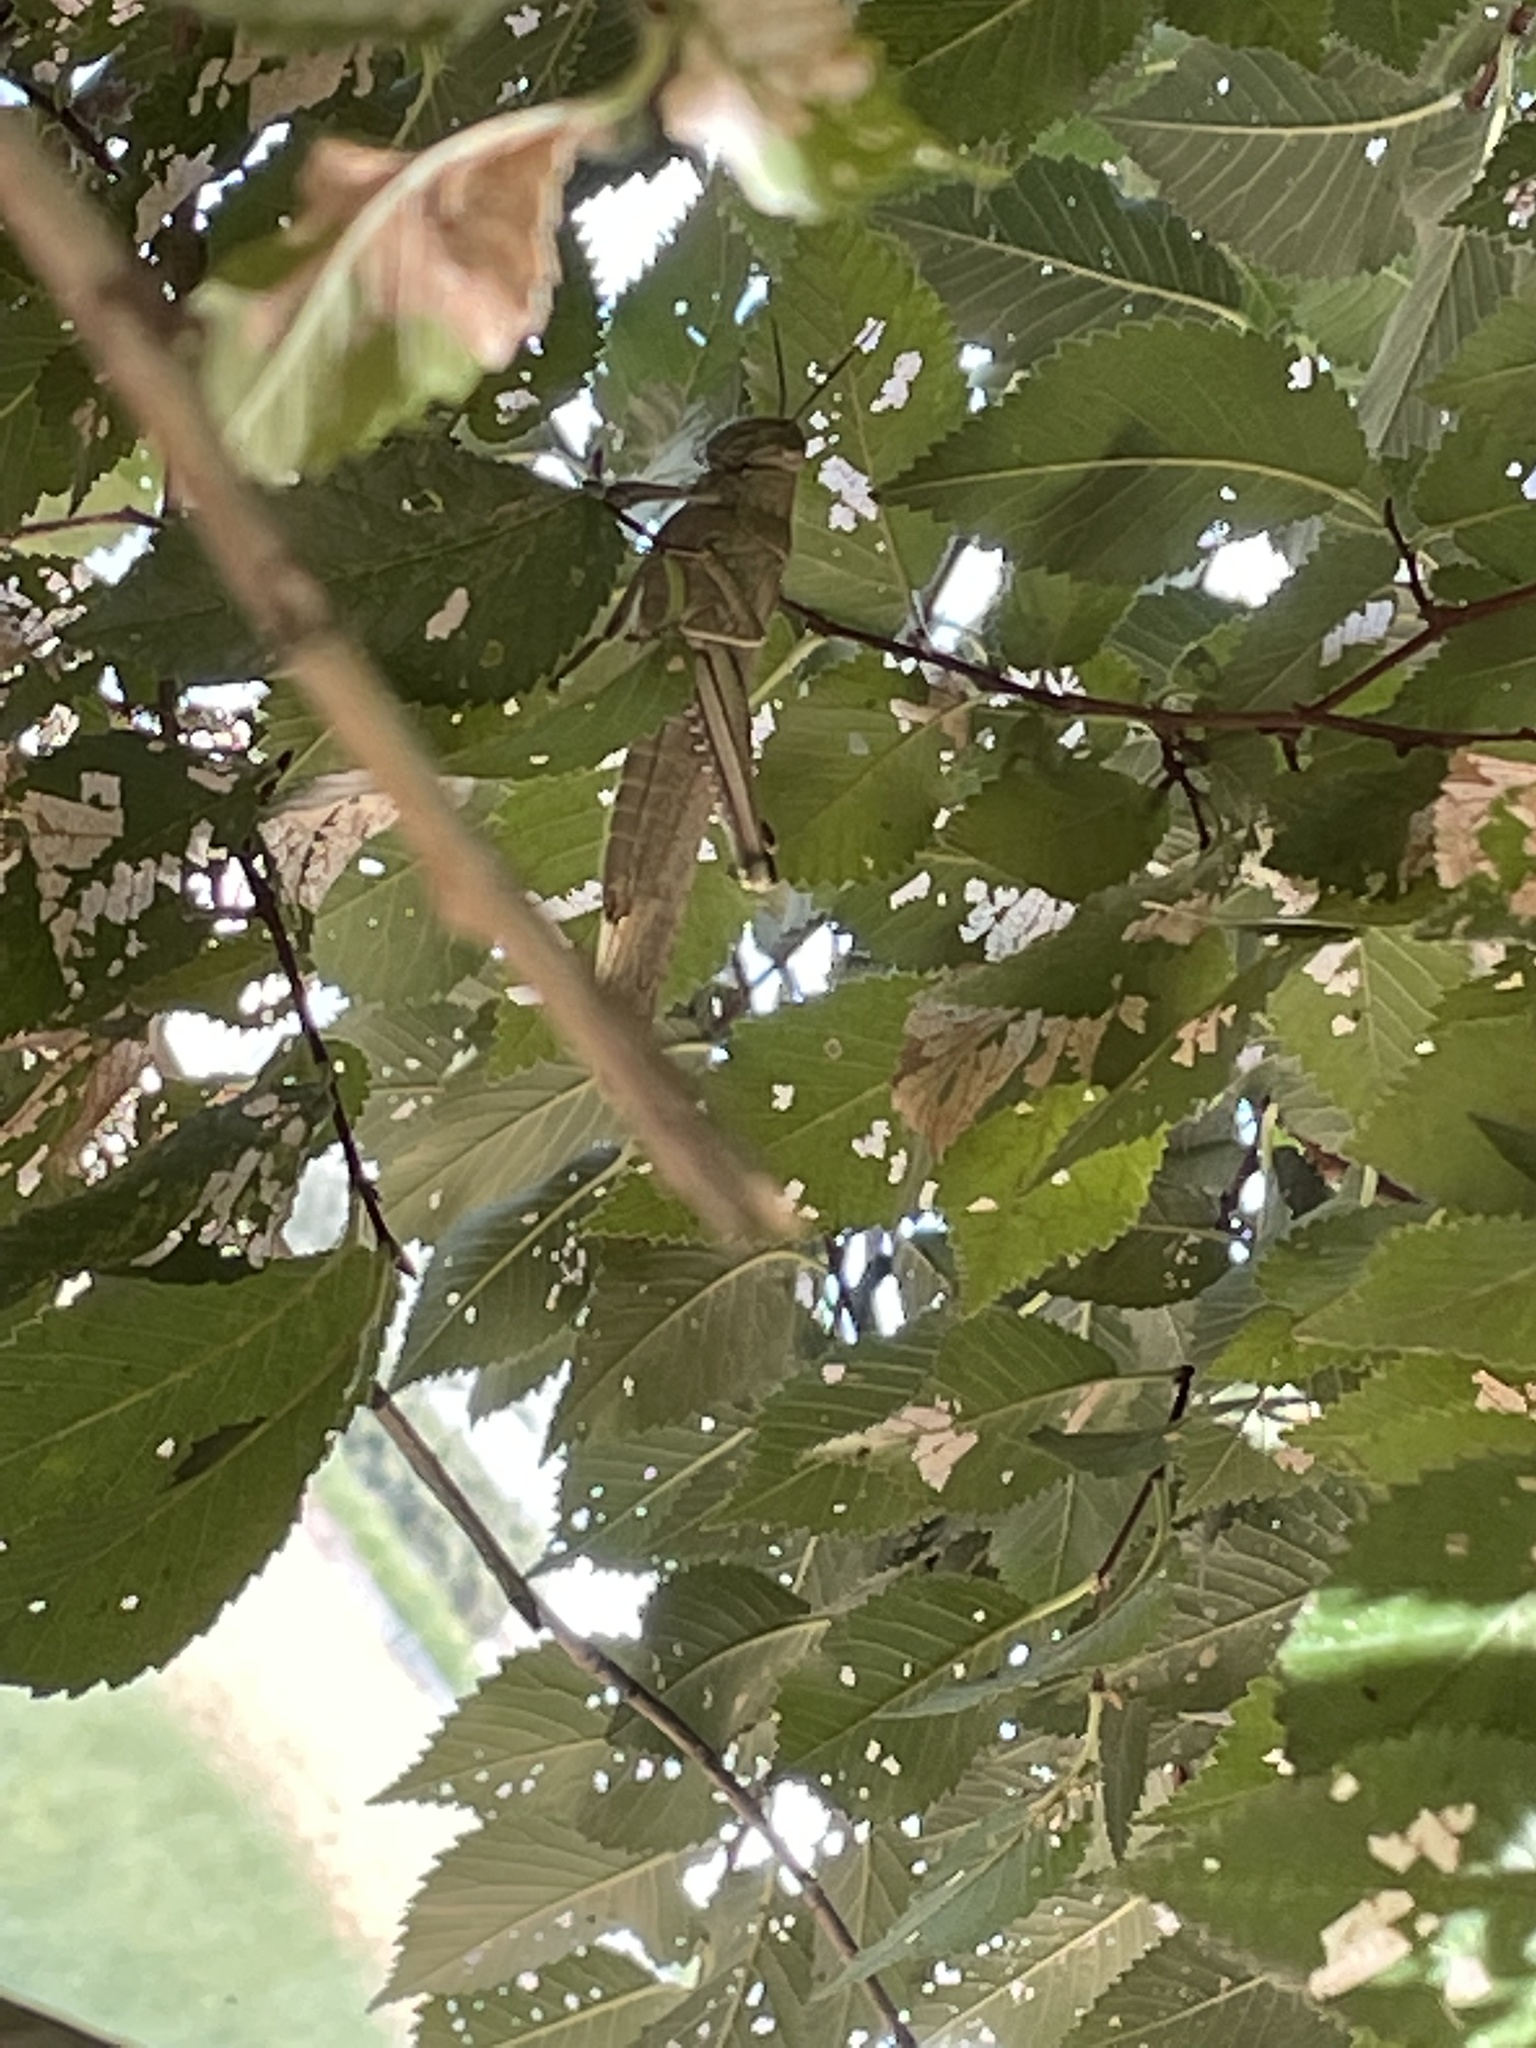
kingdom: Animalia
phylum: Arthropoda
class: Insecta
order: Orthoptera
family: Acrididae
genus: Anacridium
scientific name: Anacridium aegyptium
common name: Egyptian grasshopper
